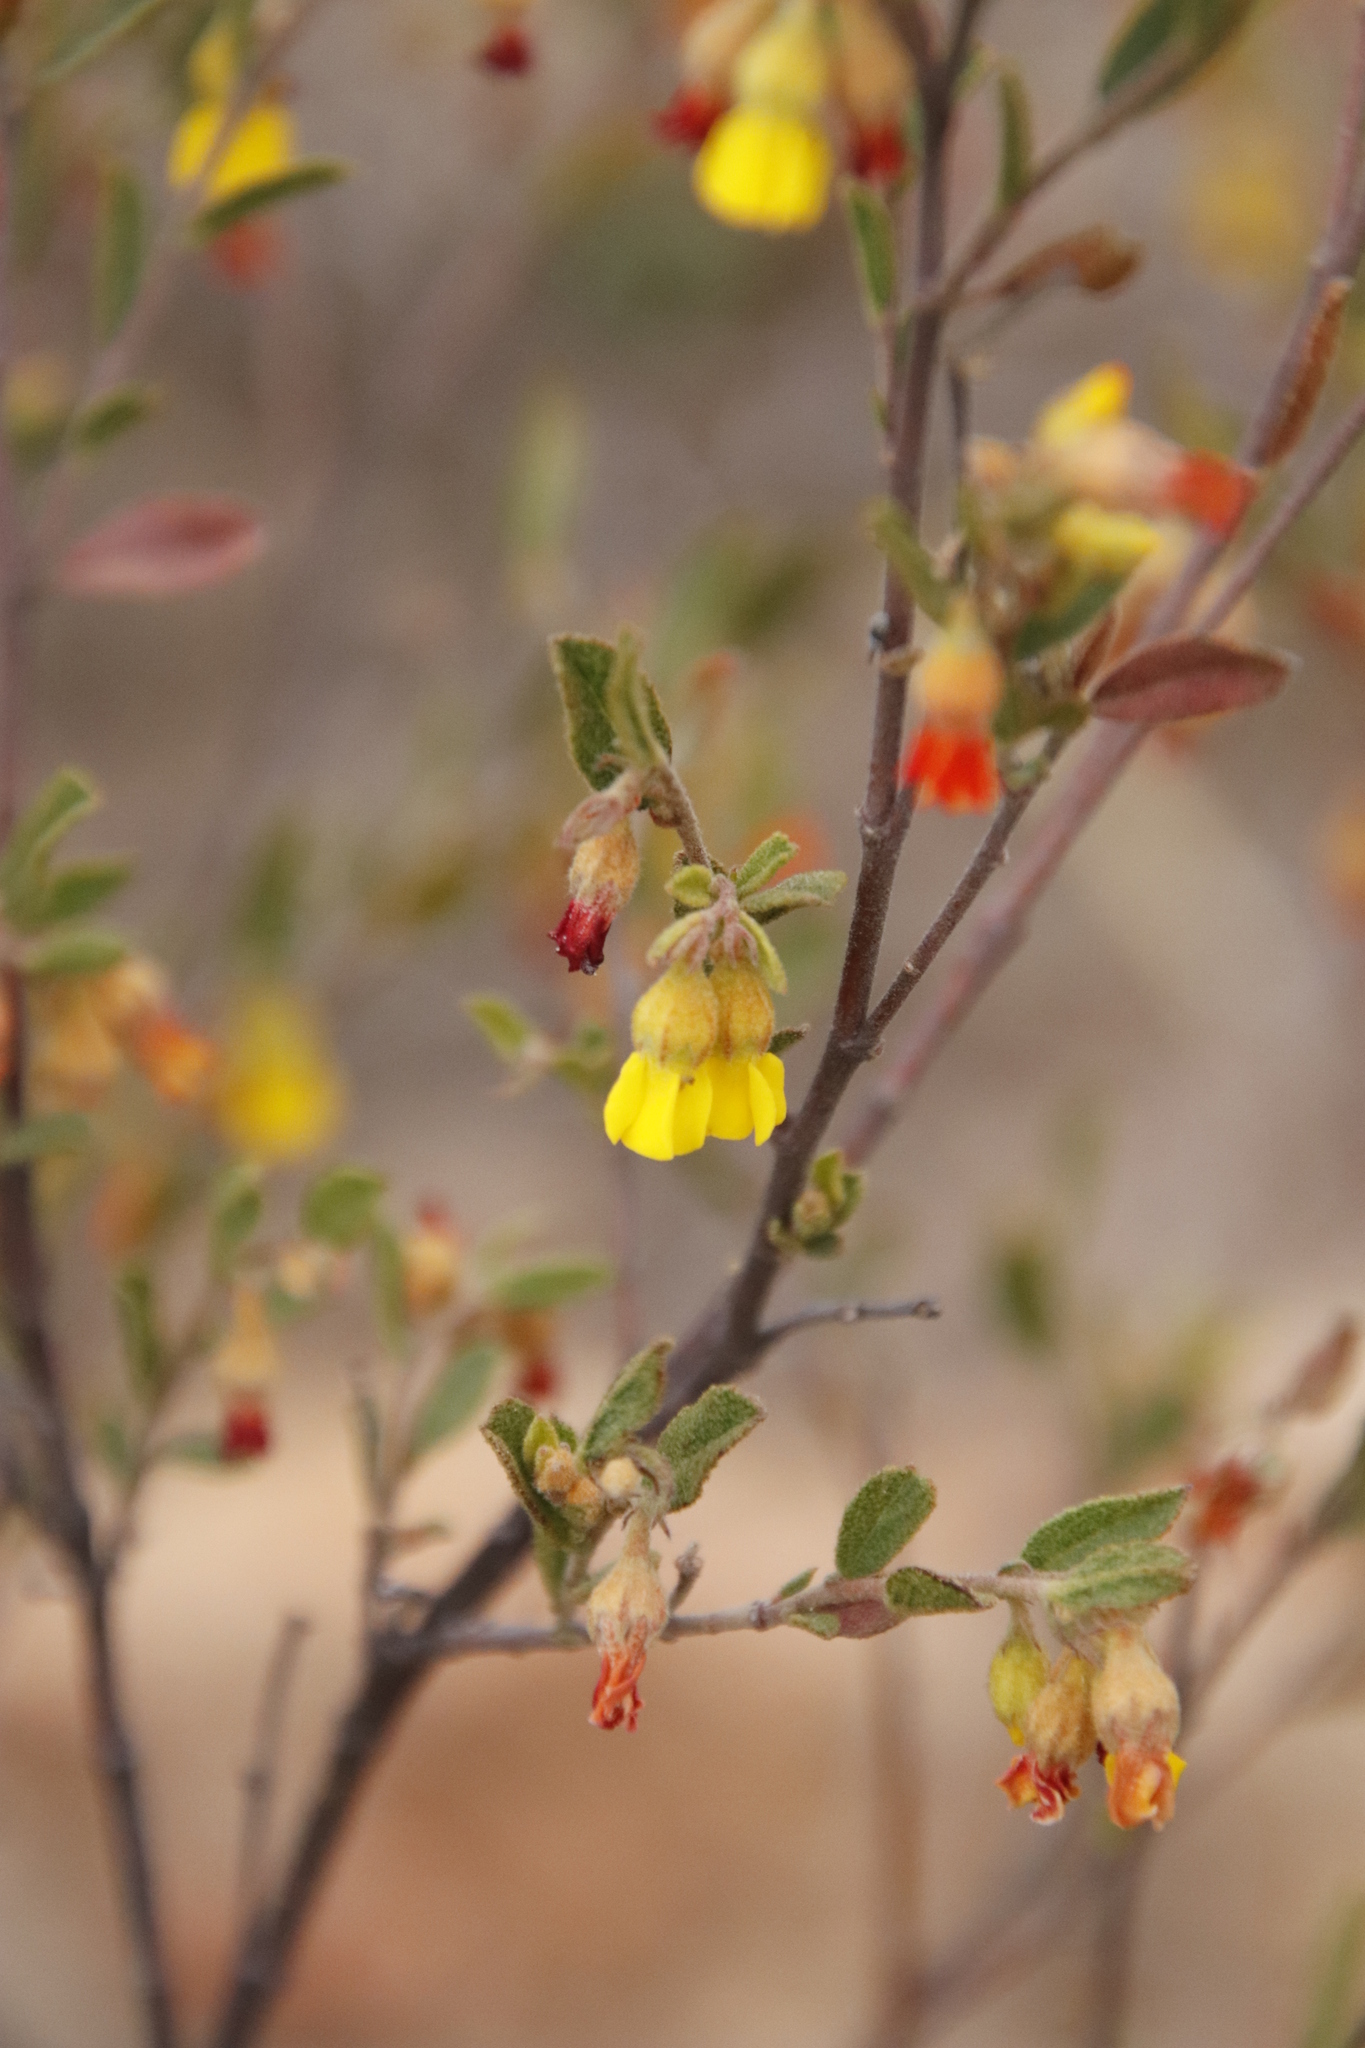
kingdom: Plantae
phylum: Tracheophyta
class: Magnoliopsida
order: Malvales
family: Malvaceae
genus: Hermannia
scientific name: Hermannia decipiens
